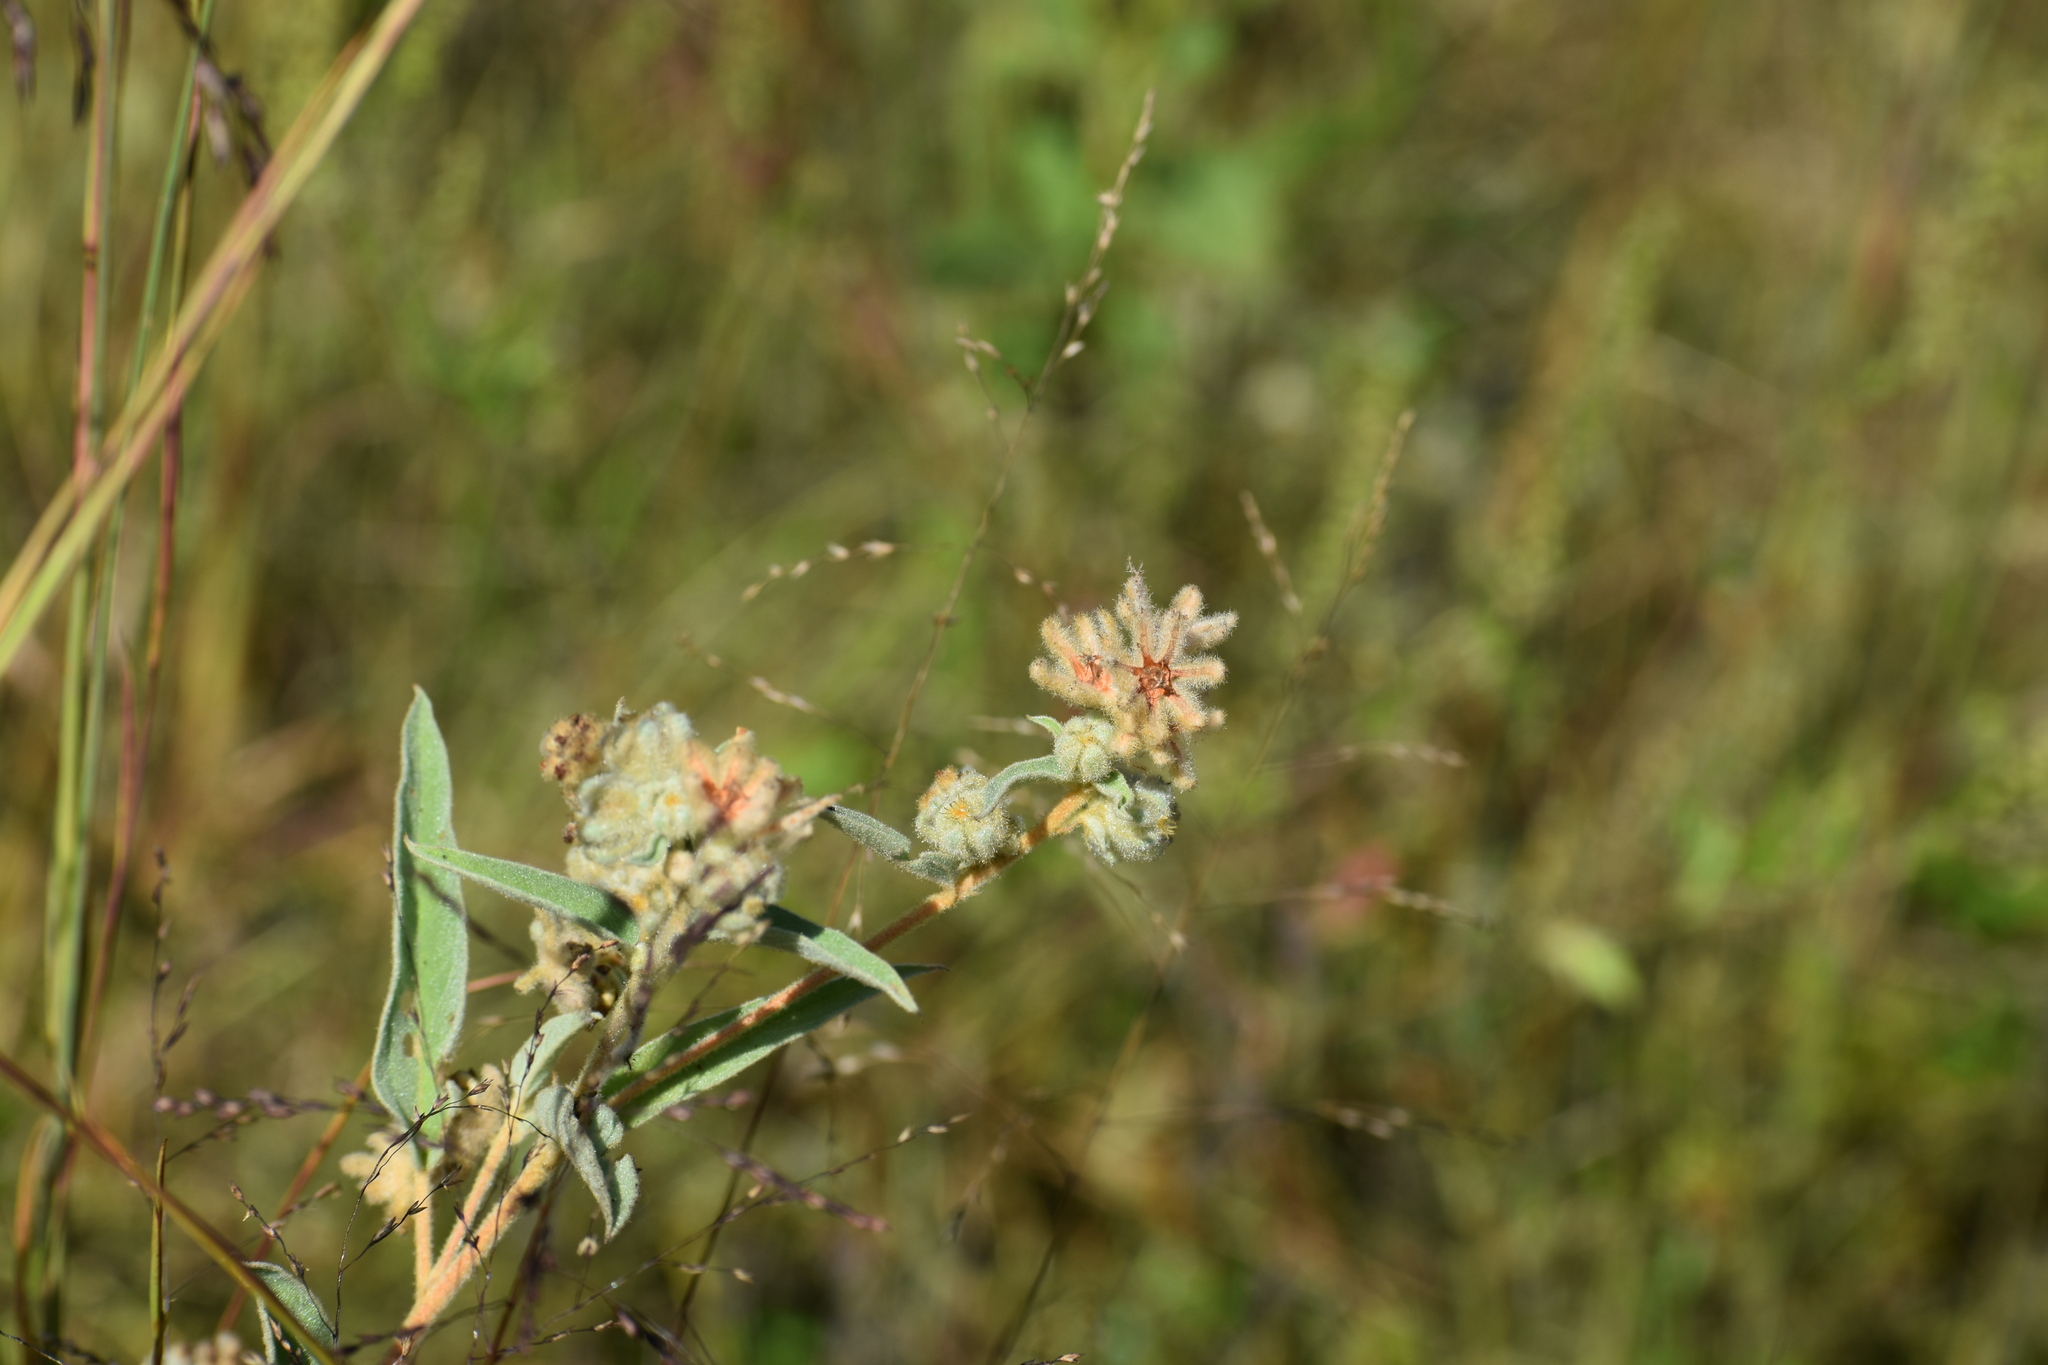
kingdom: Plantae
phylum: Tracheophyta
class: Magnoliopsida
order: Malpighiales
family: Euphorbiaceae
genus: Croton
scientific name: Croton lindheimeri
